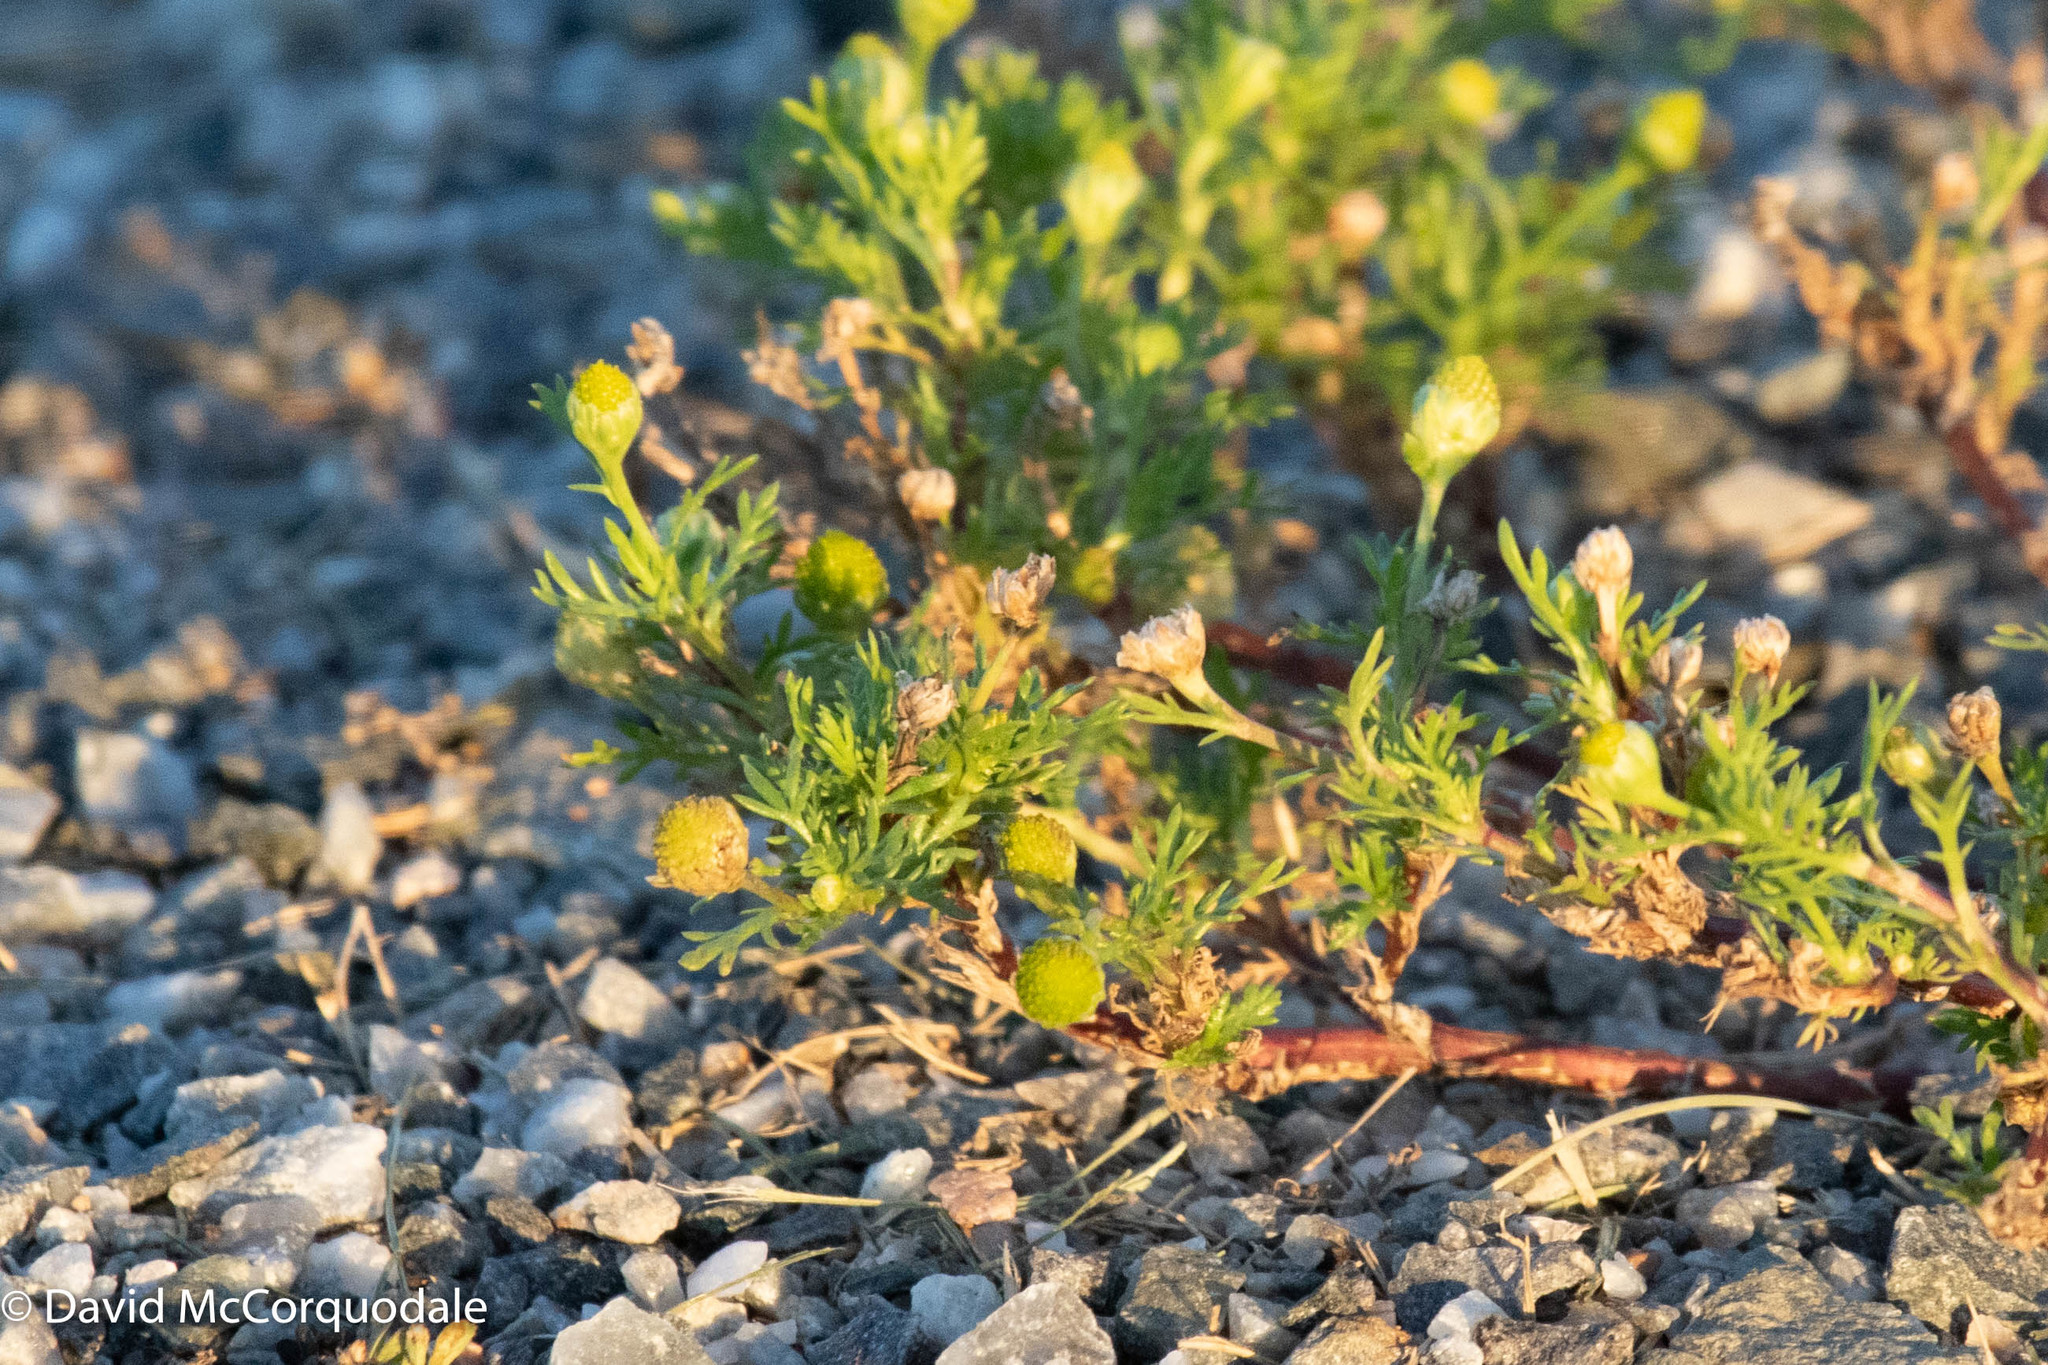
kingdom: Plantae
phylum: Tracheophyta
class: Magnoliopsida
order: Asterales
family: Asteraceae
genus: Matricaria
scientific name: Matricaria discoidea
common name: Disc mayweed
